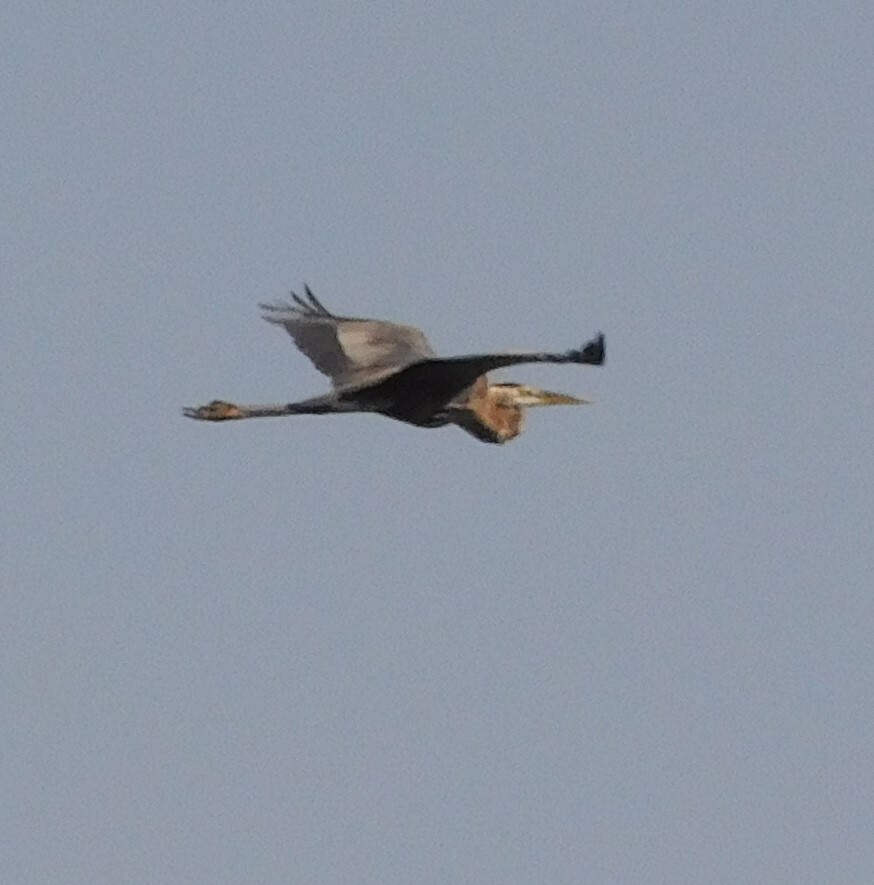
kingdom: Animalia
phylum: Chordata
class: Aves
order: Pelecaniformes
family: Ardeidae
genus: Ardea
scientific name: Ardea herodias
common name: Great blue heron
